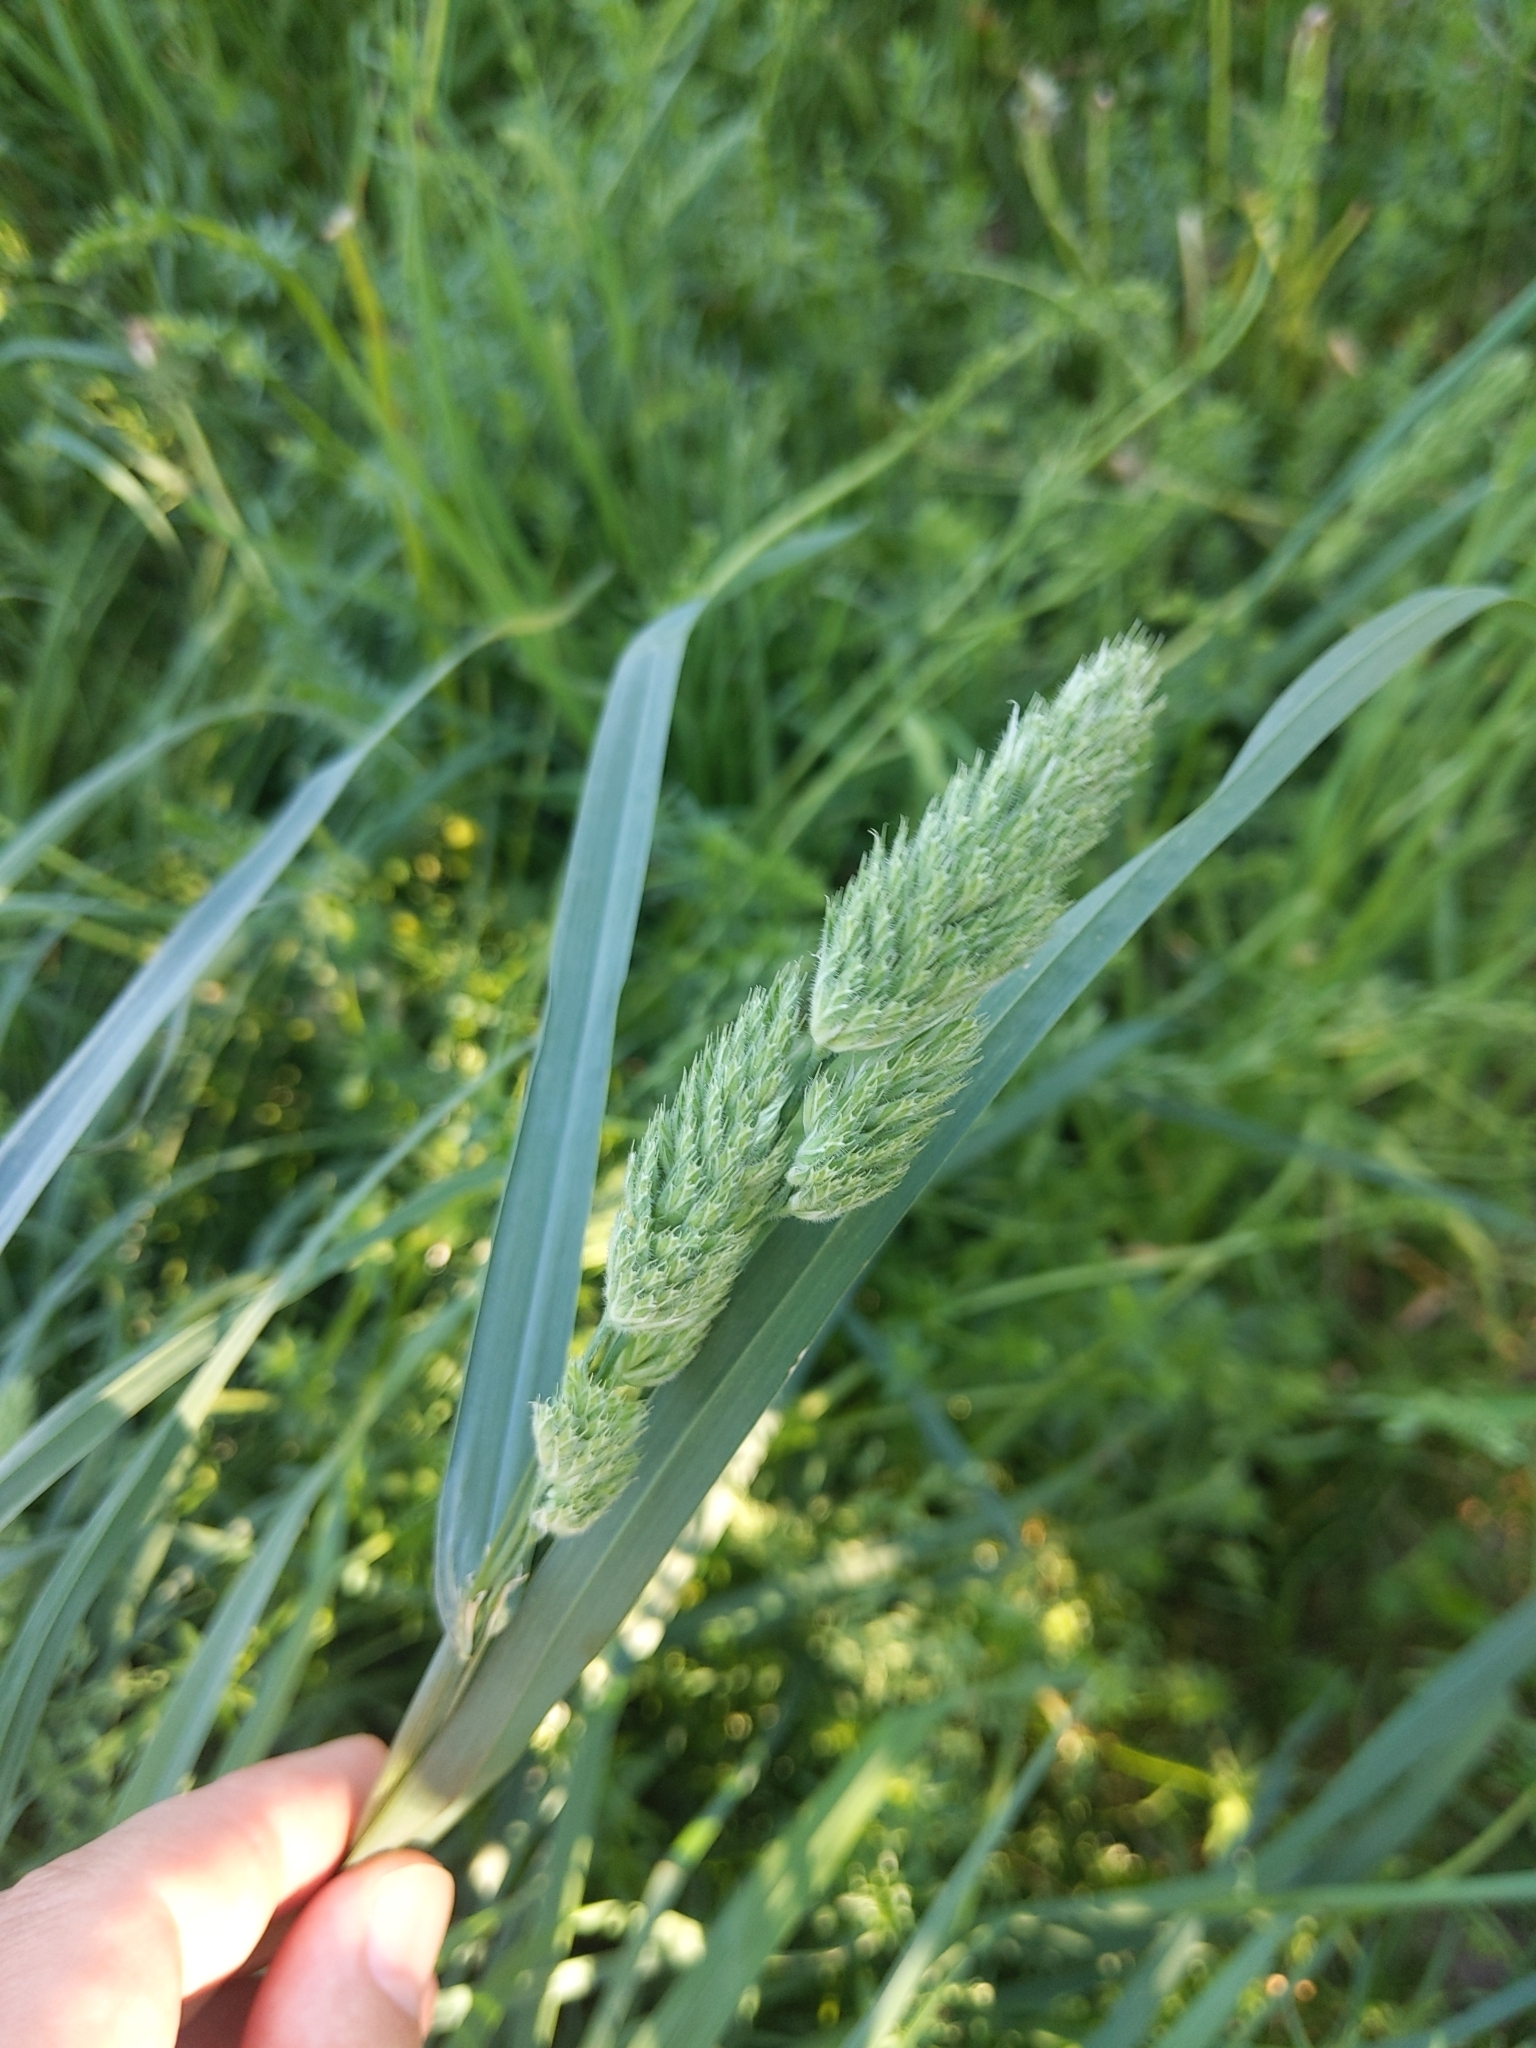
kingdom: Plantae
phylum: Tracheophyta
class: Liliopsida
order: Poales
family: Poaceae
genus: Dactylis
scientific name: Dactylis glomerata
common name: Orchardgrass
